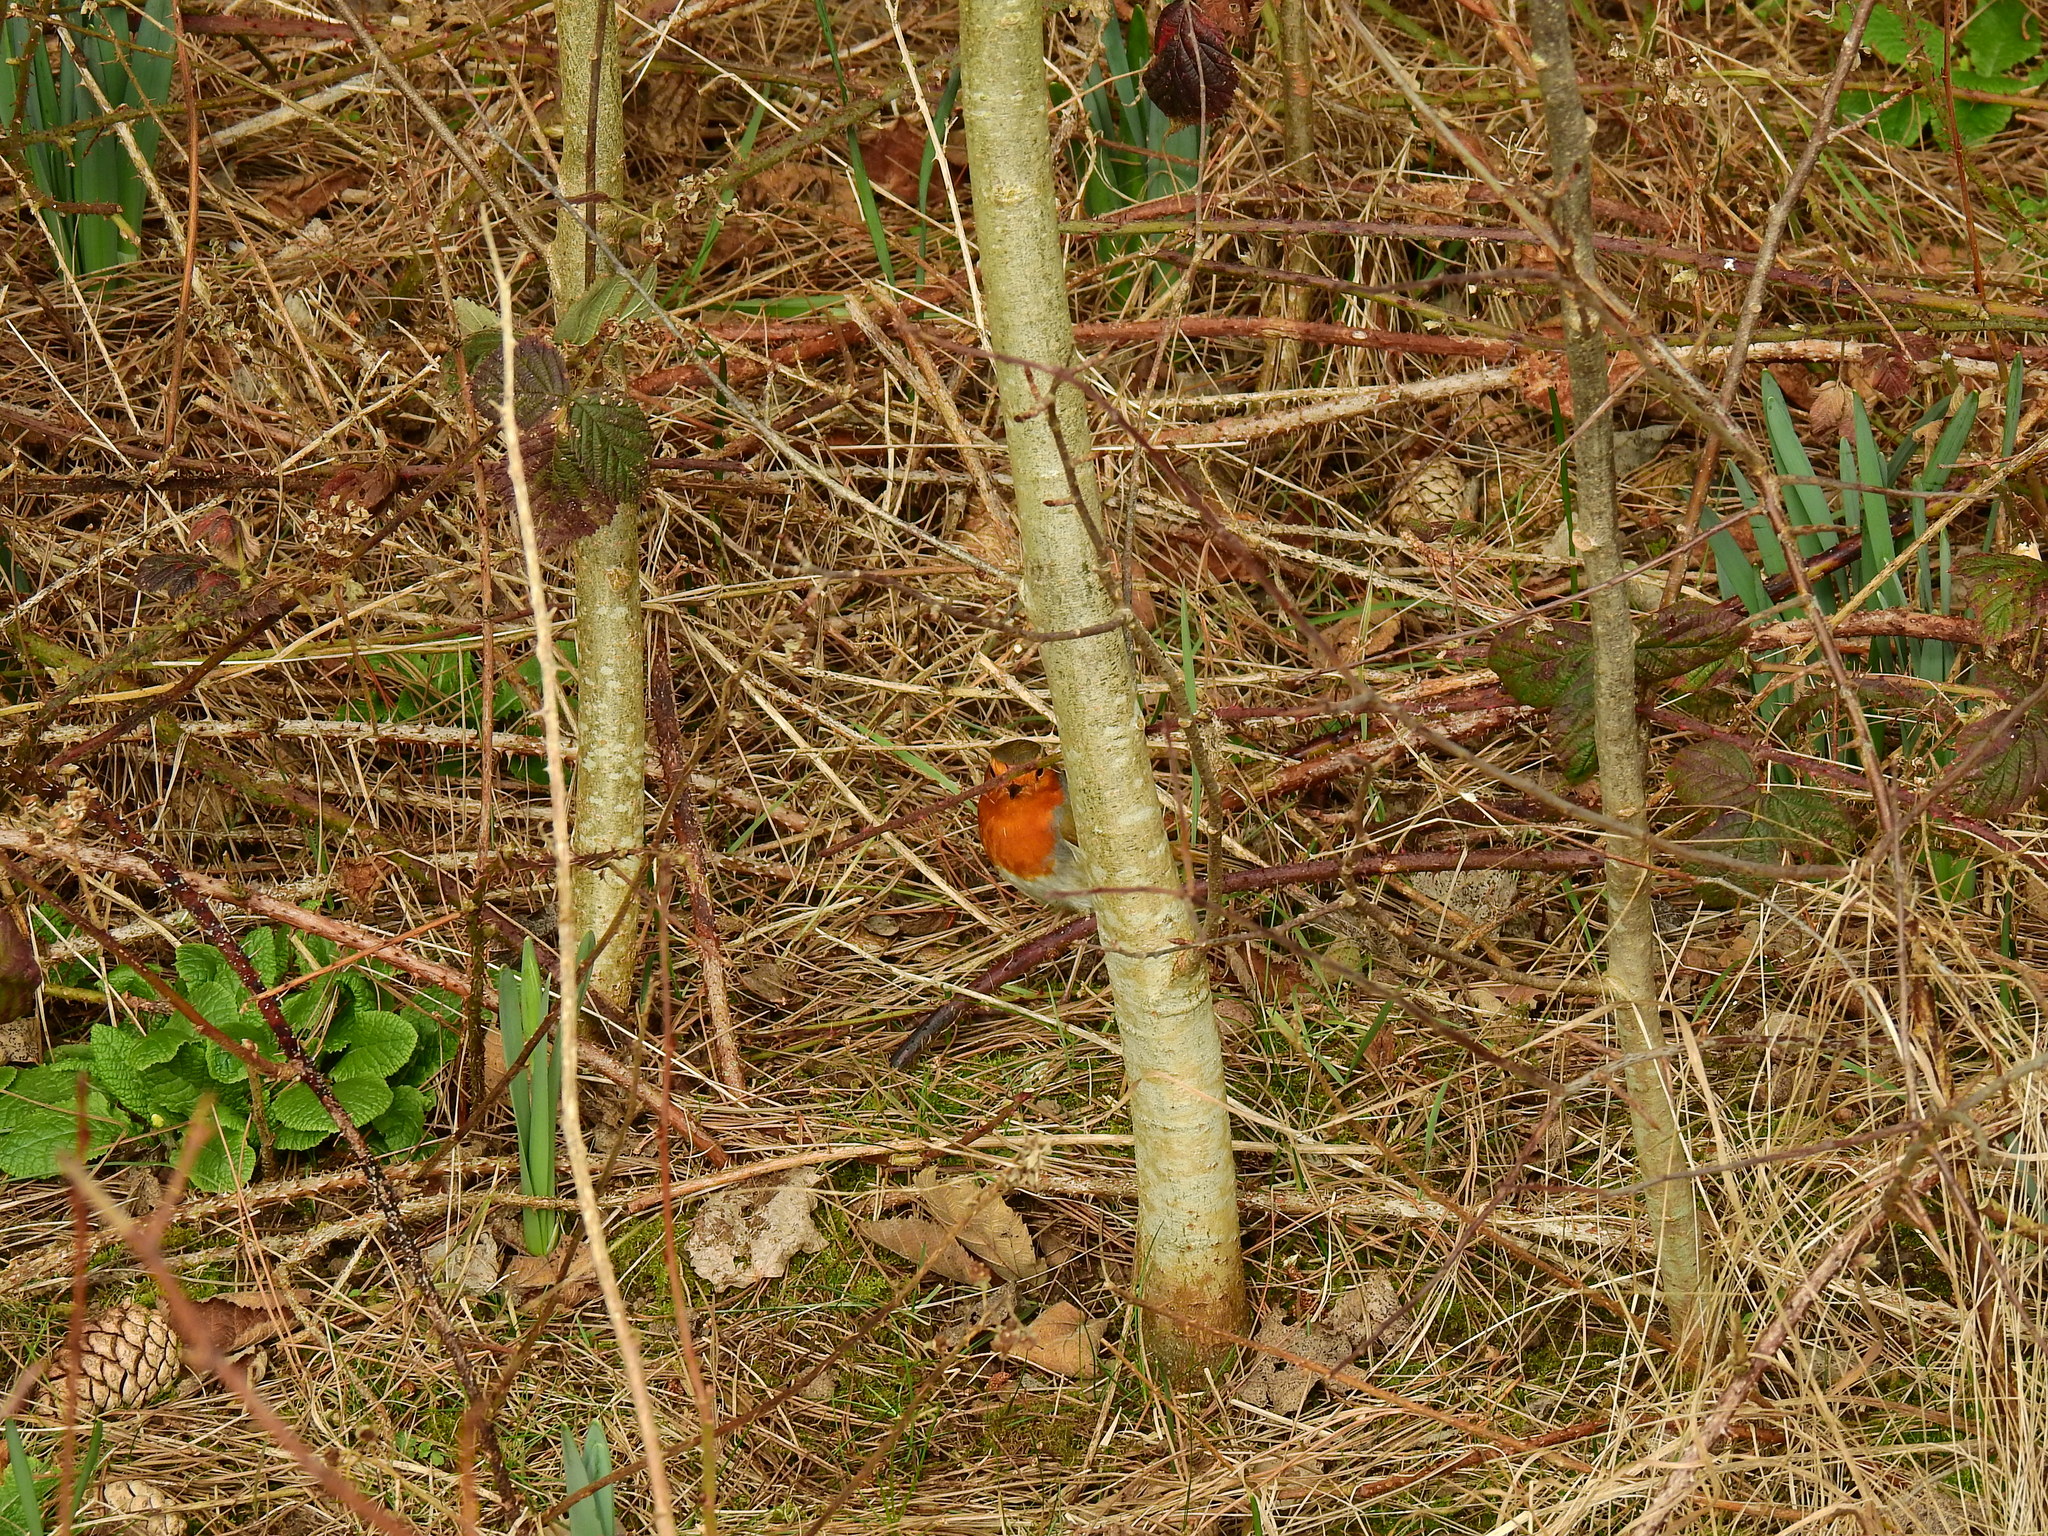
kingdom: Animalia
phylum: Chordata
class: Aves
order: Passeriformes
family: Muscicapidae
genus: Erithacus
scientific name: Erithacus rubecula
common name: European robin
